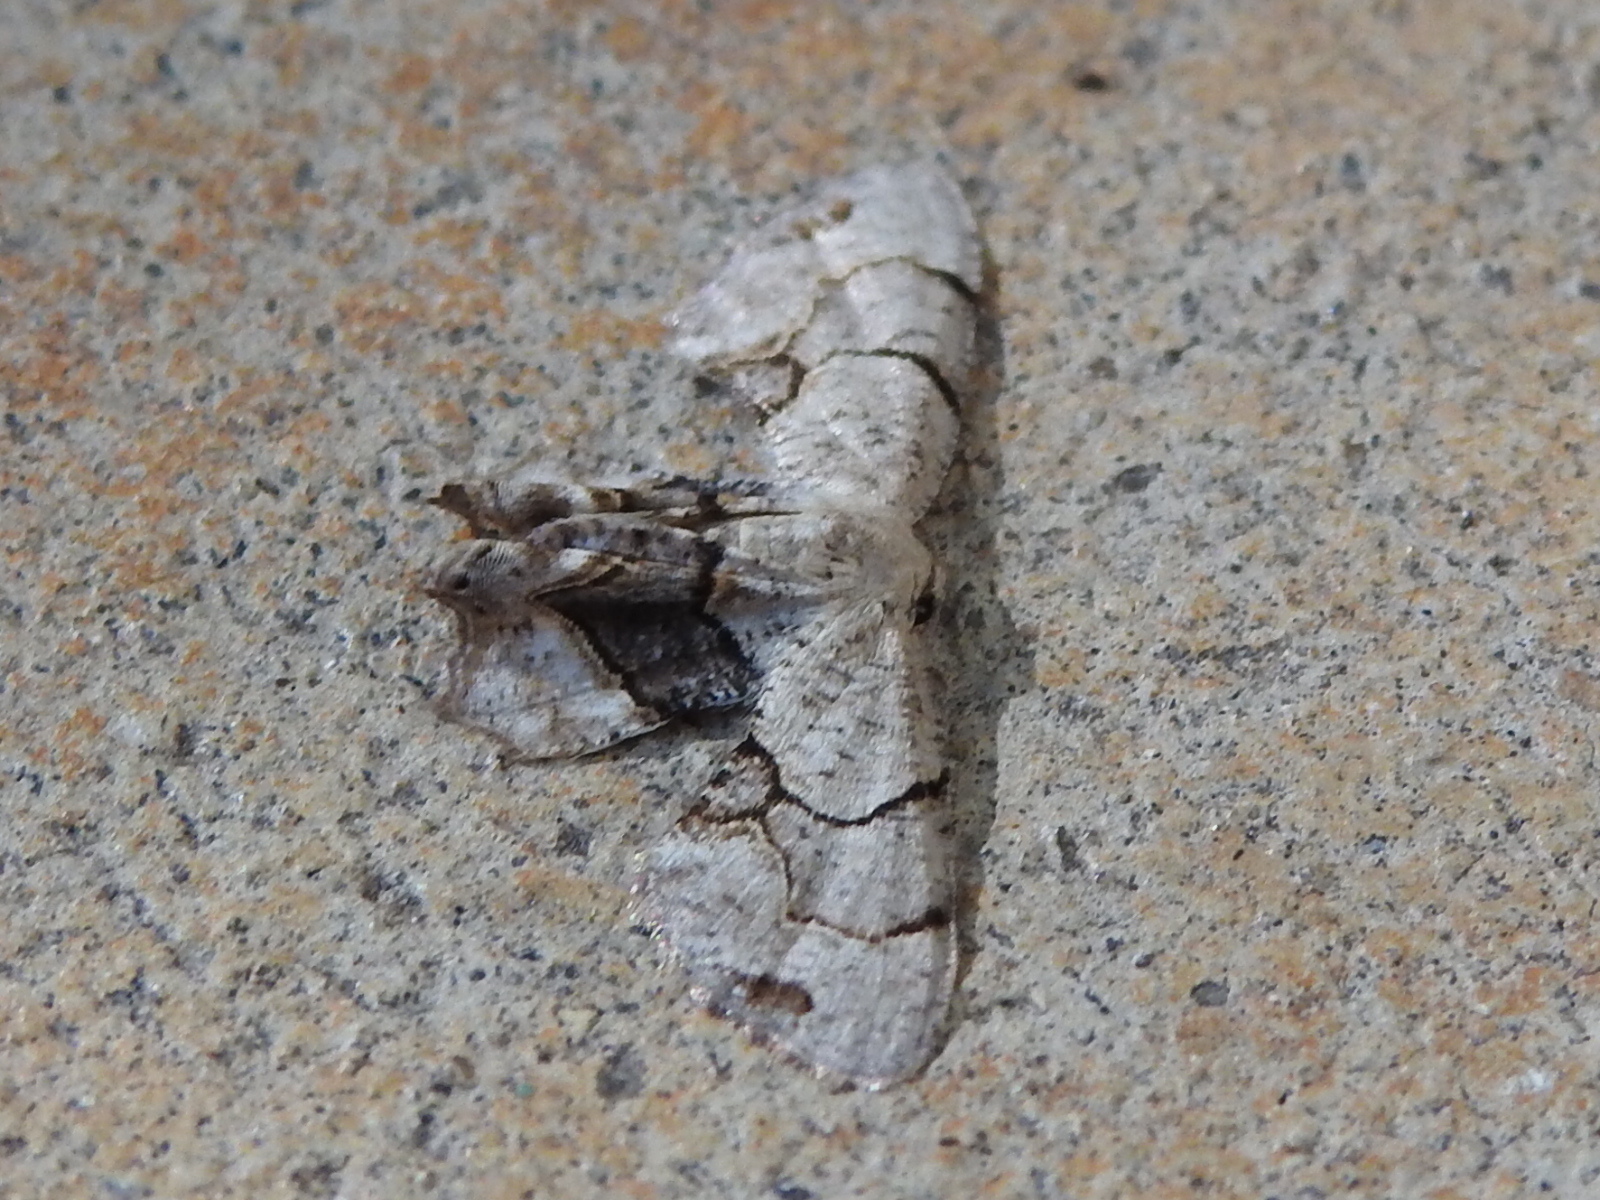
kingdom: Animalia
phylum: Arthropoda
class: Insecta
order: Lepidoptera
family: Uraniidae
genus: Epiplema
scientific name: Epiplema Callizzia amorata
